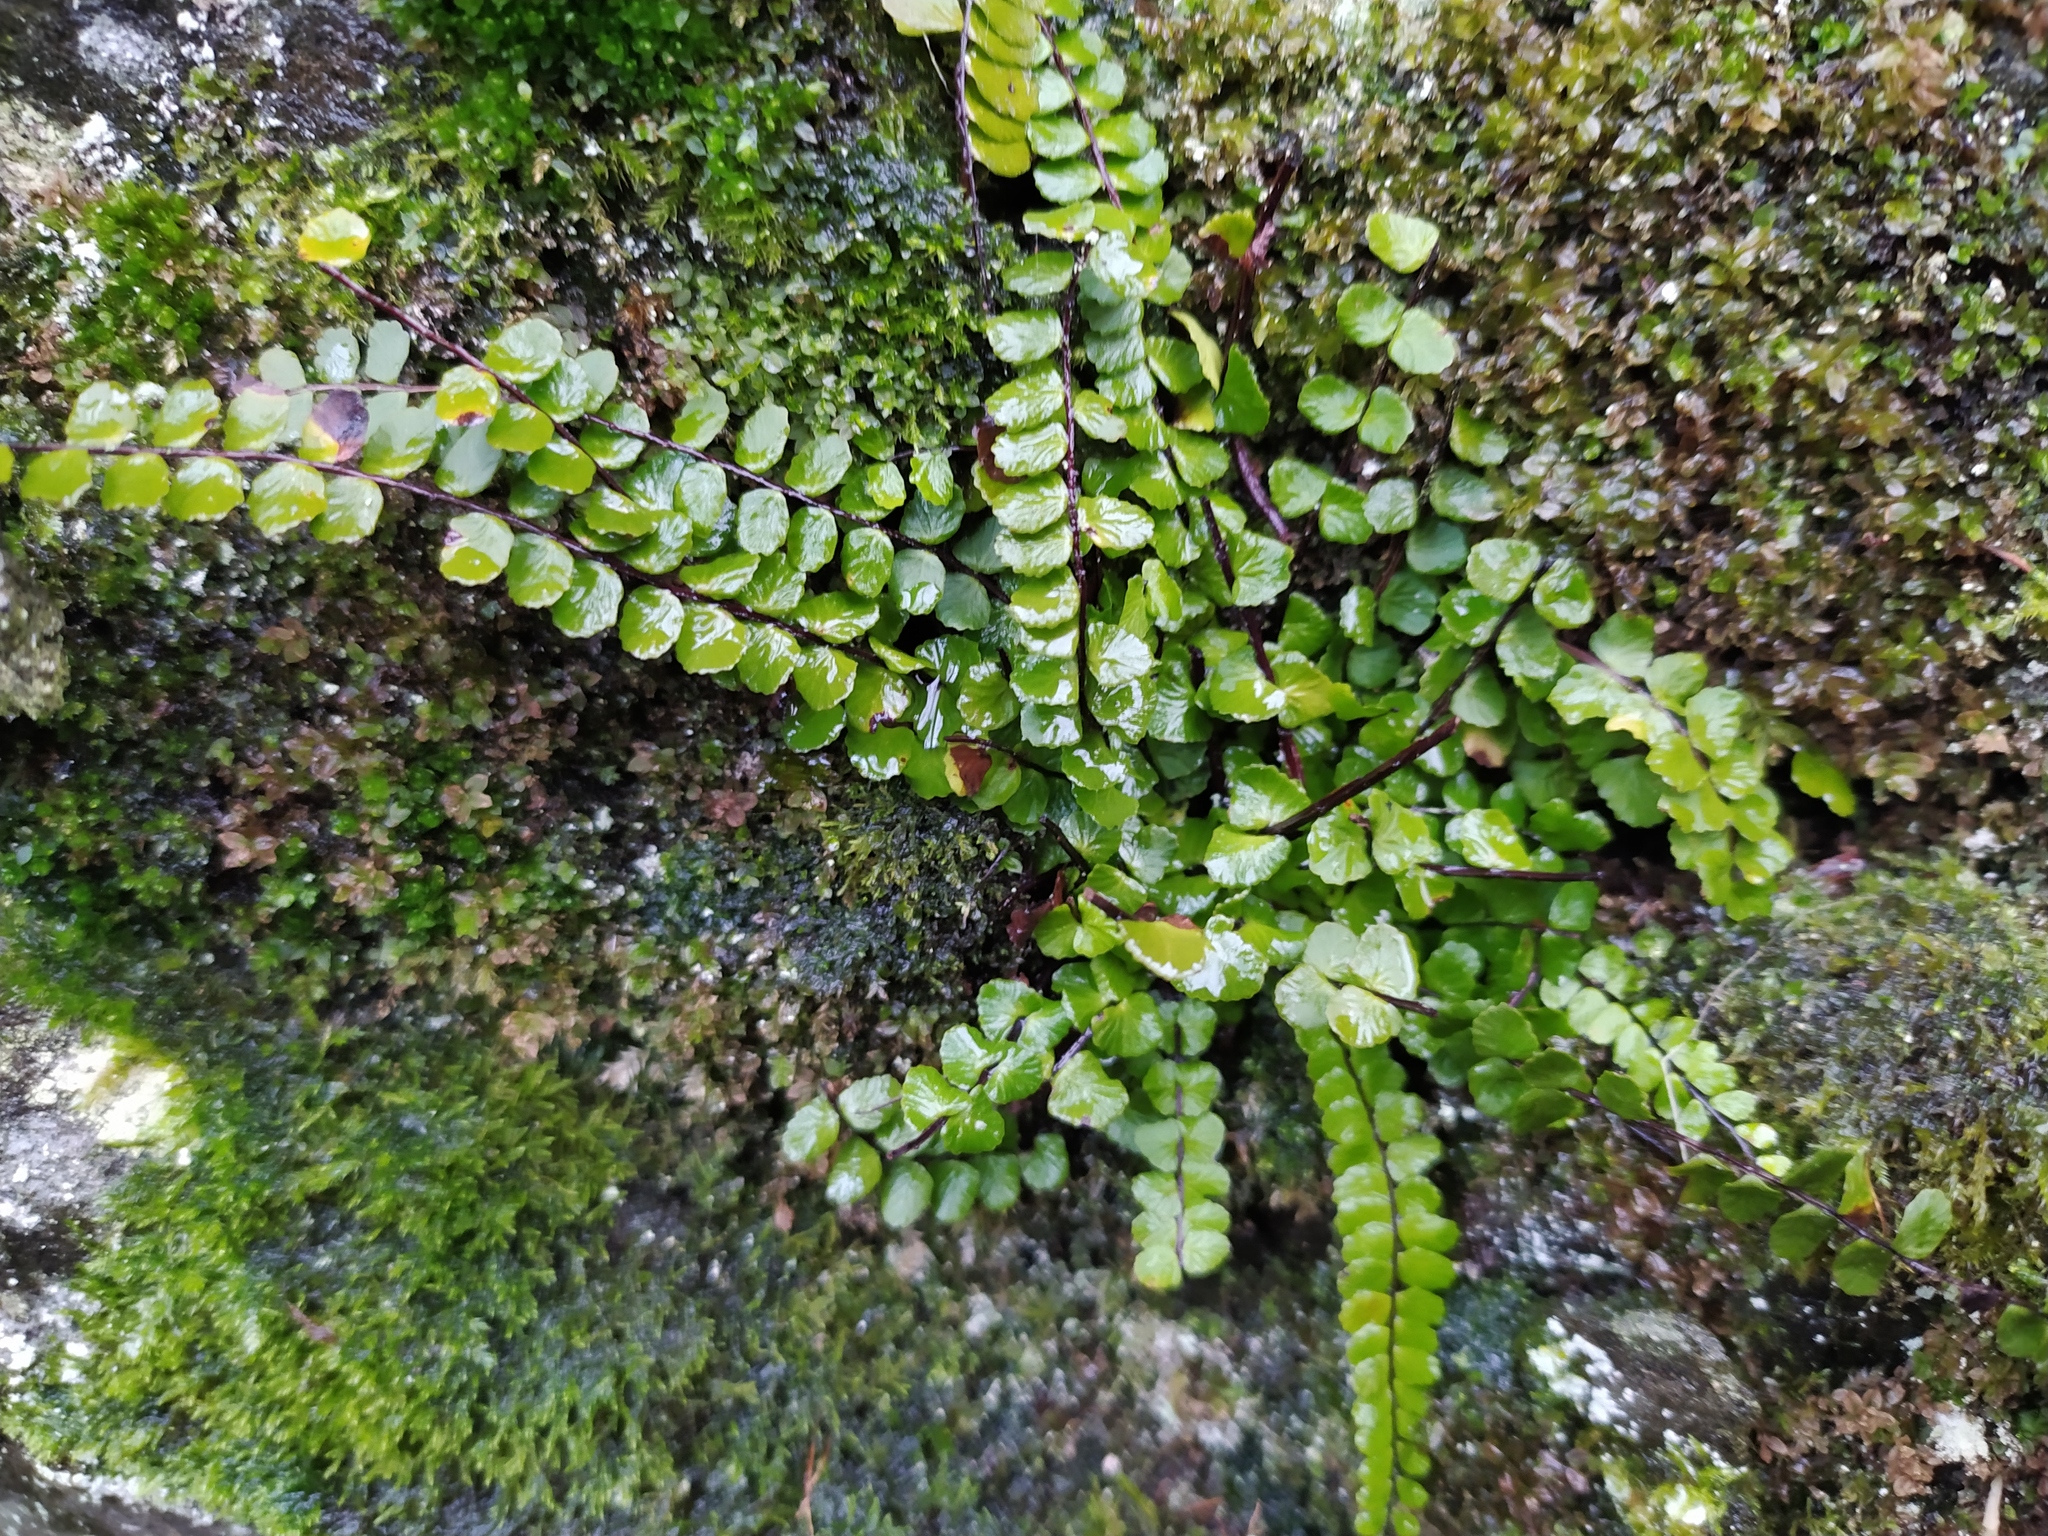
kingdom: Plantae
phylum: Tracheophyta
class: Polypodiopsida
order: Polypodiales
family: Aspleniaceae
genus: Asplenium
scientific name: Asplenium trichomanes
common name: Maidenhair spleenwort
